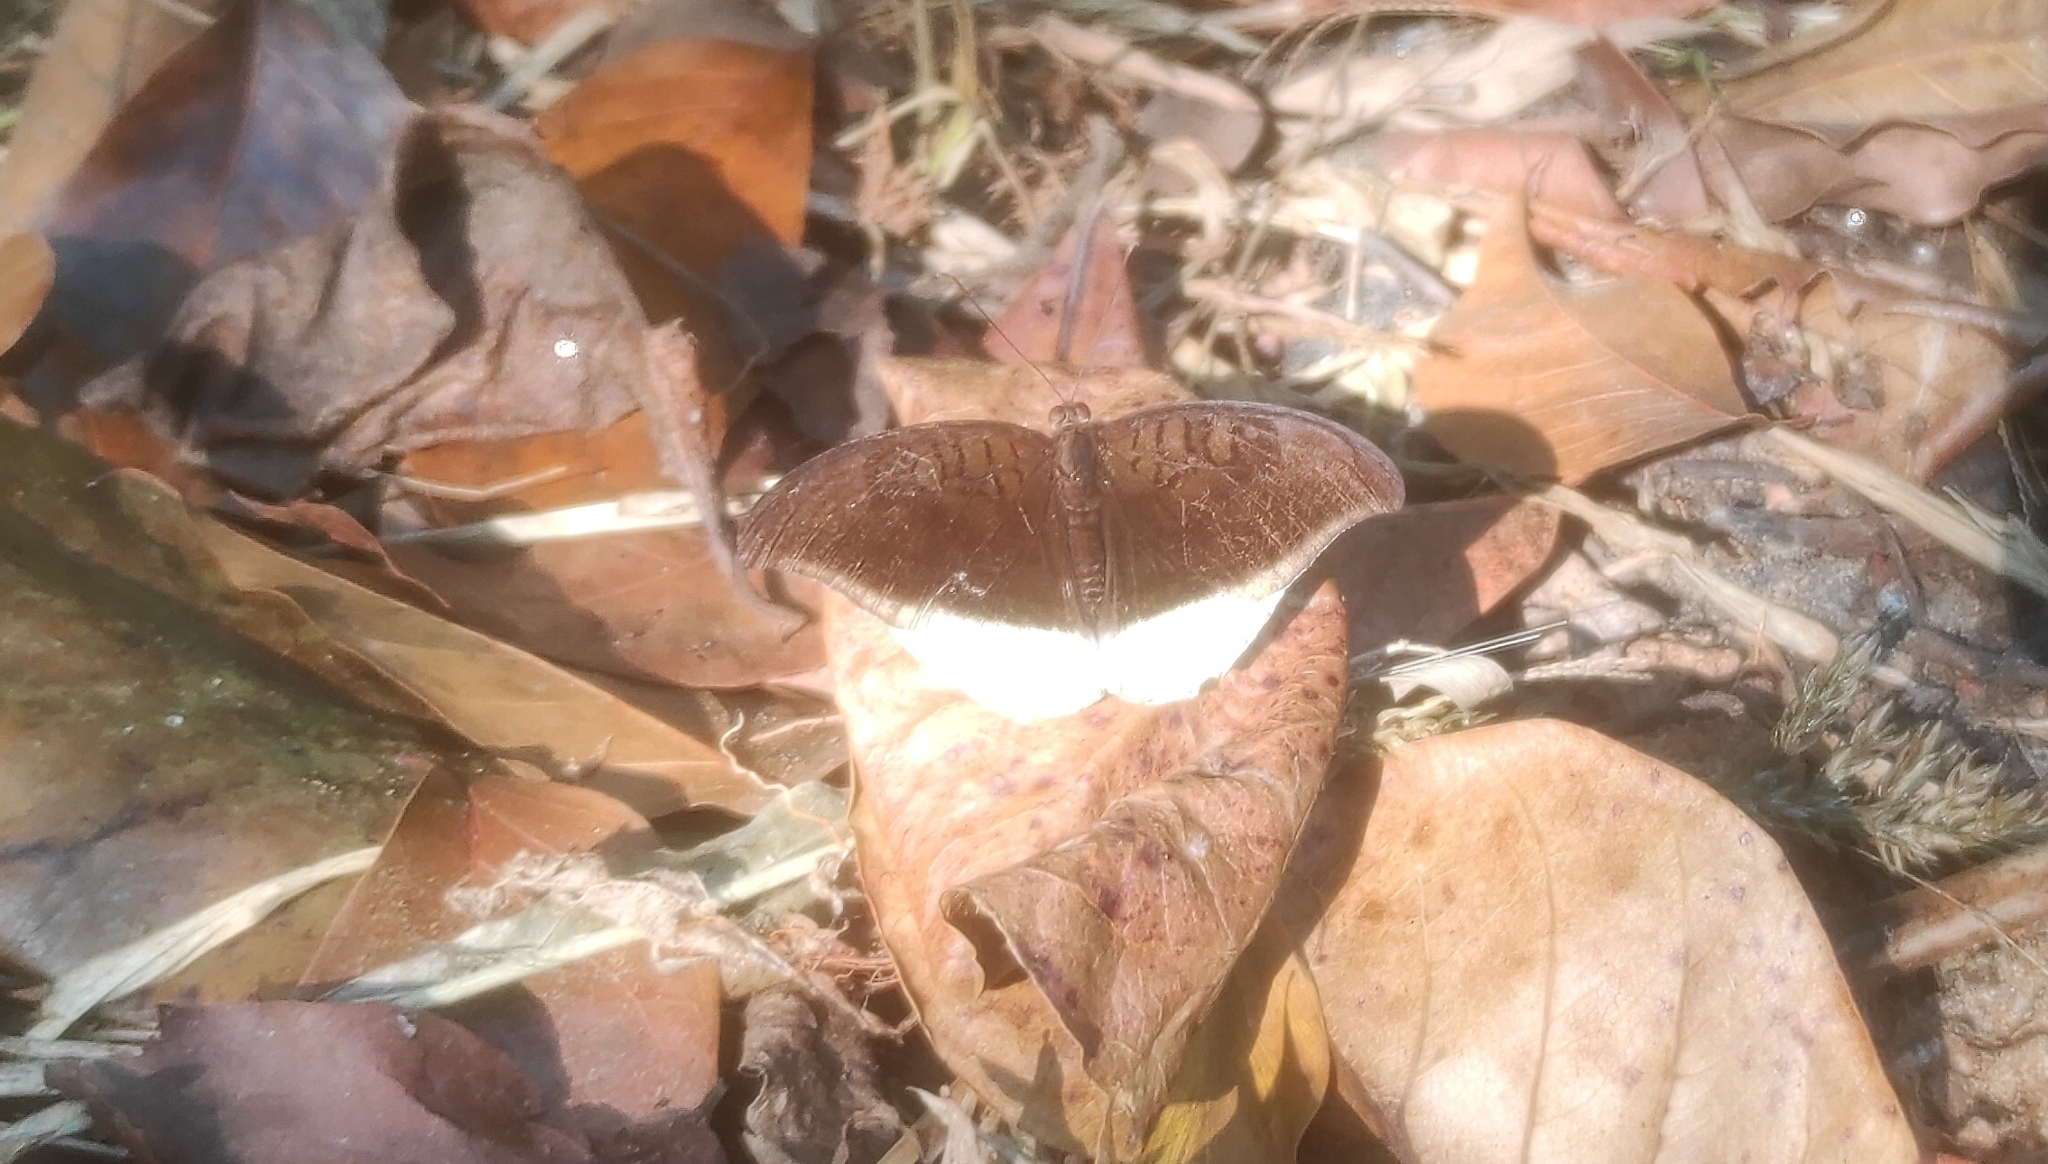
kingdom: Animalia
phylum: Arthropoda
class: Insecta
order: Lepidoptera
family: Nymphalidae
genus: Tanaecia
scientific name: Tanaecia lepidea
